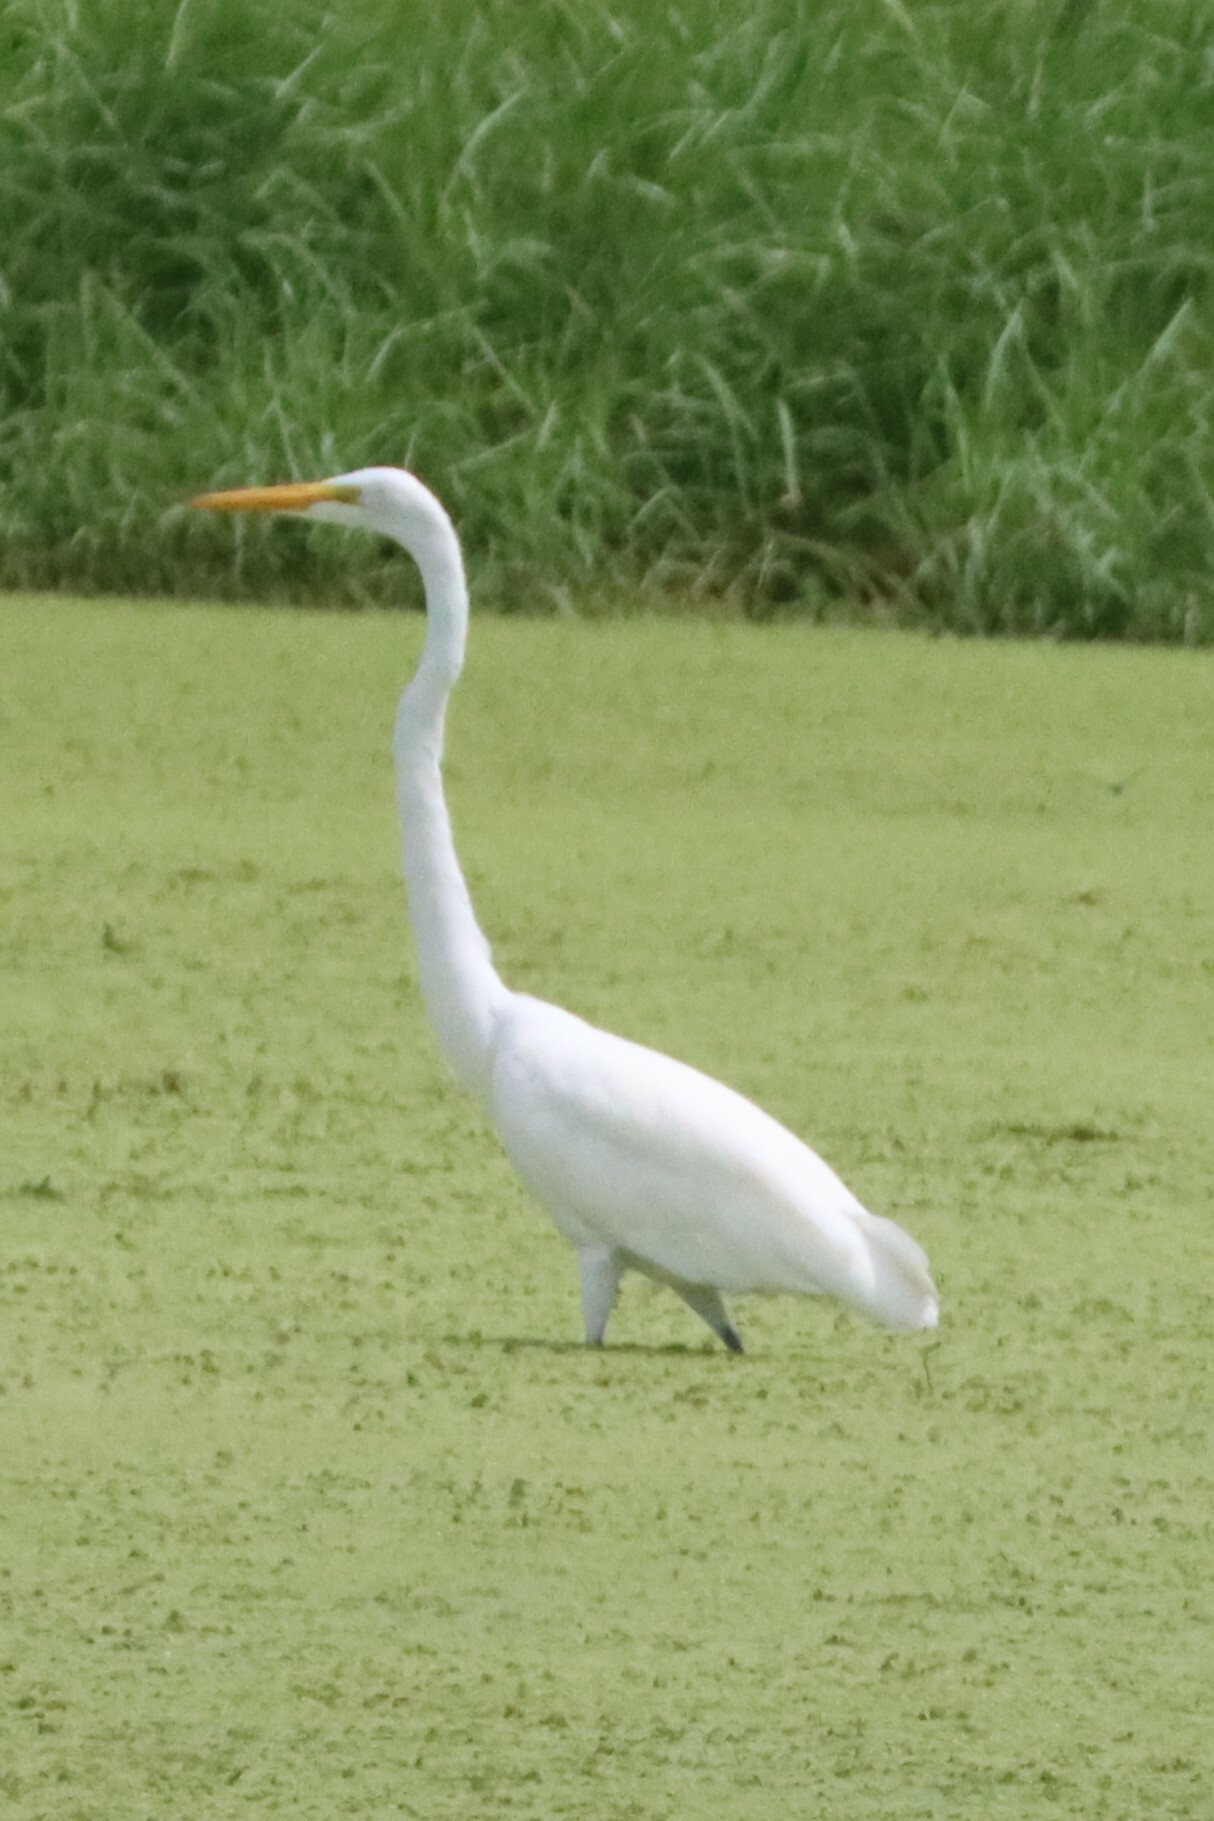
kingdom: Animalia
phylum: Chordata
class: Aves
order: Pelecaniformes
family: Ardeidae
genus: Ardea
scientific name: Ardea alba
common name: Great egret
